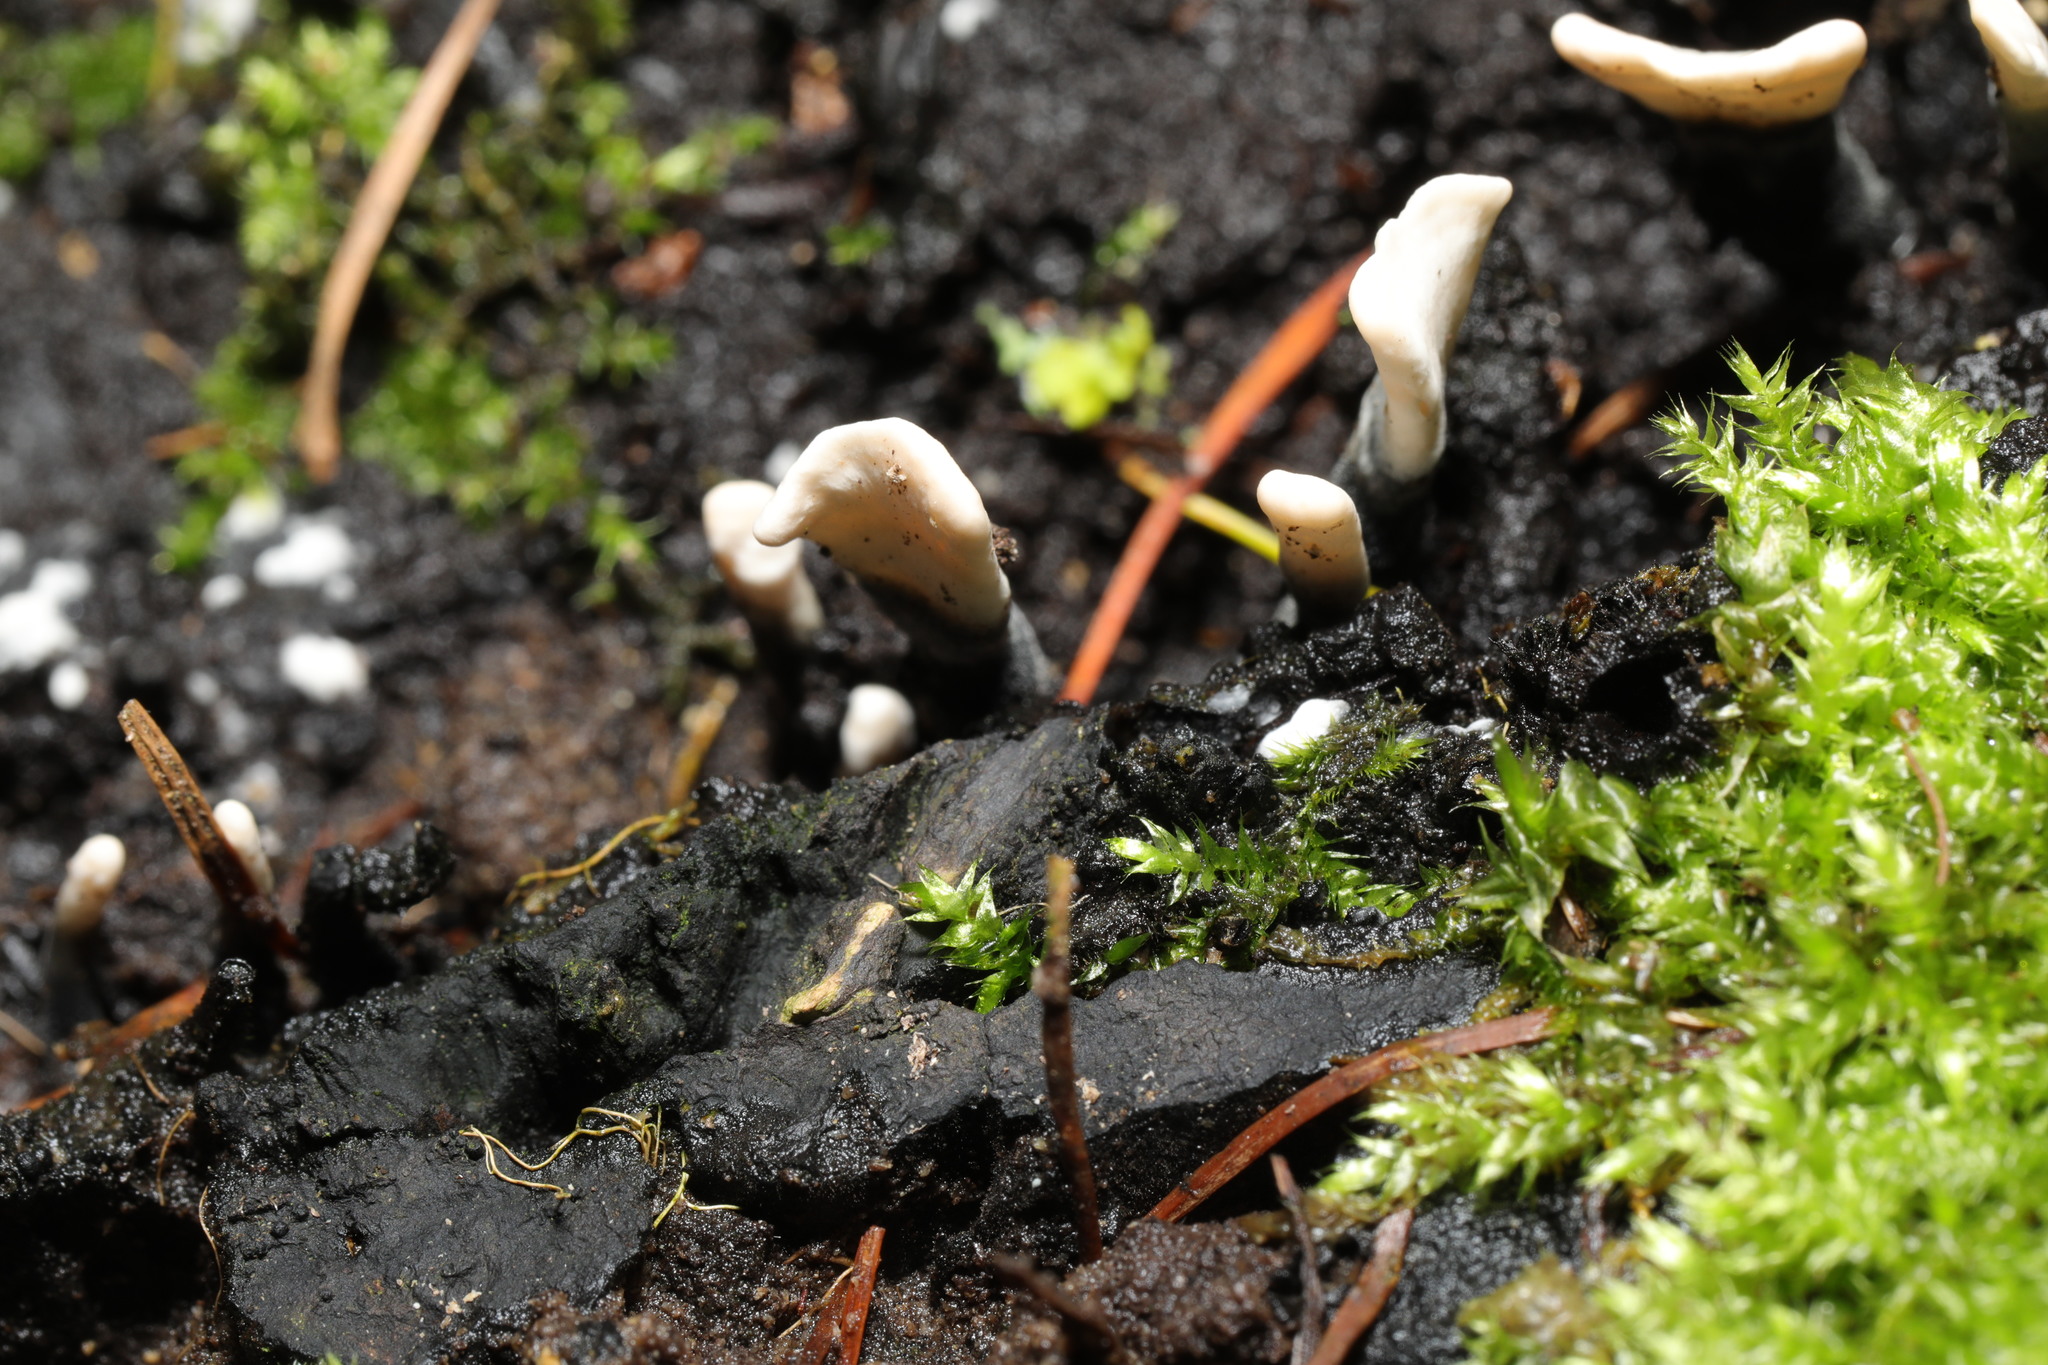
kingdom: Fungi
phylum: Ascomycota
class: Sordariomycetes
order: Xylariales
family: Xylariaceae
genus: Xylaria
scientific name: Xylaria hypoxylon
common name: Candle-snuff fungus
